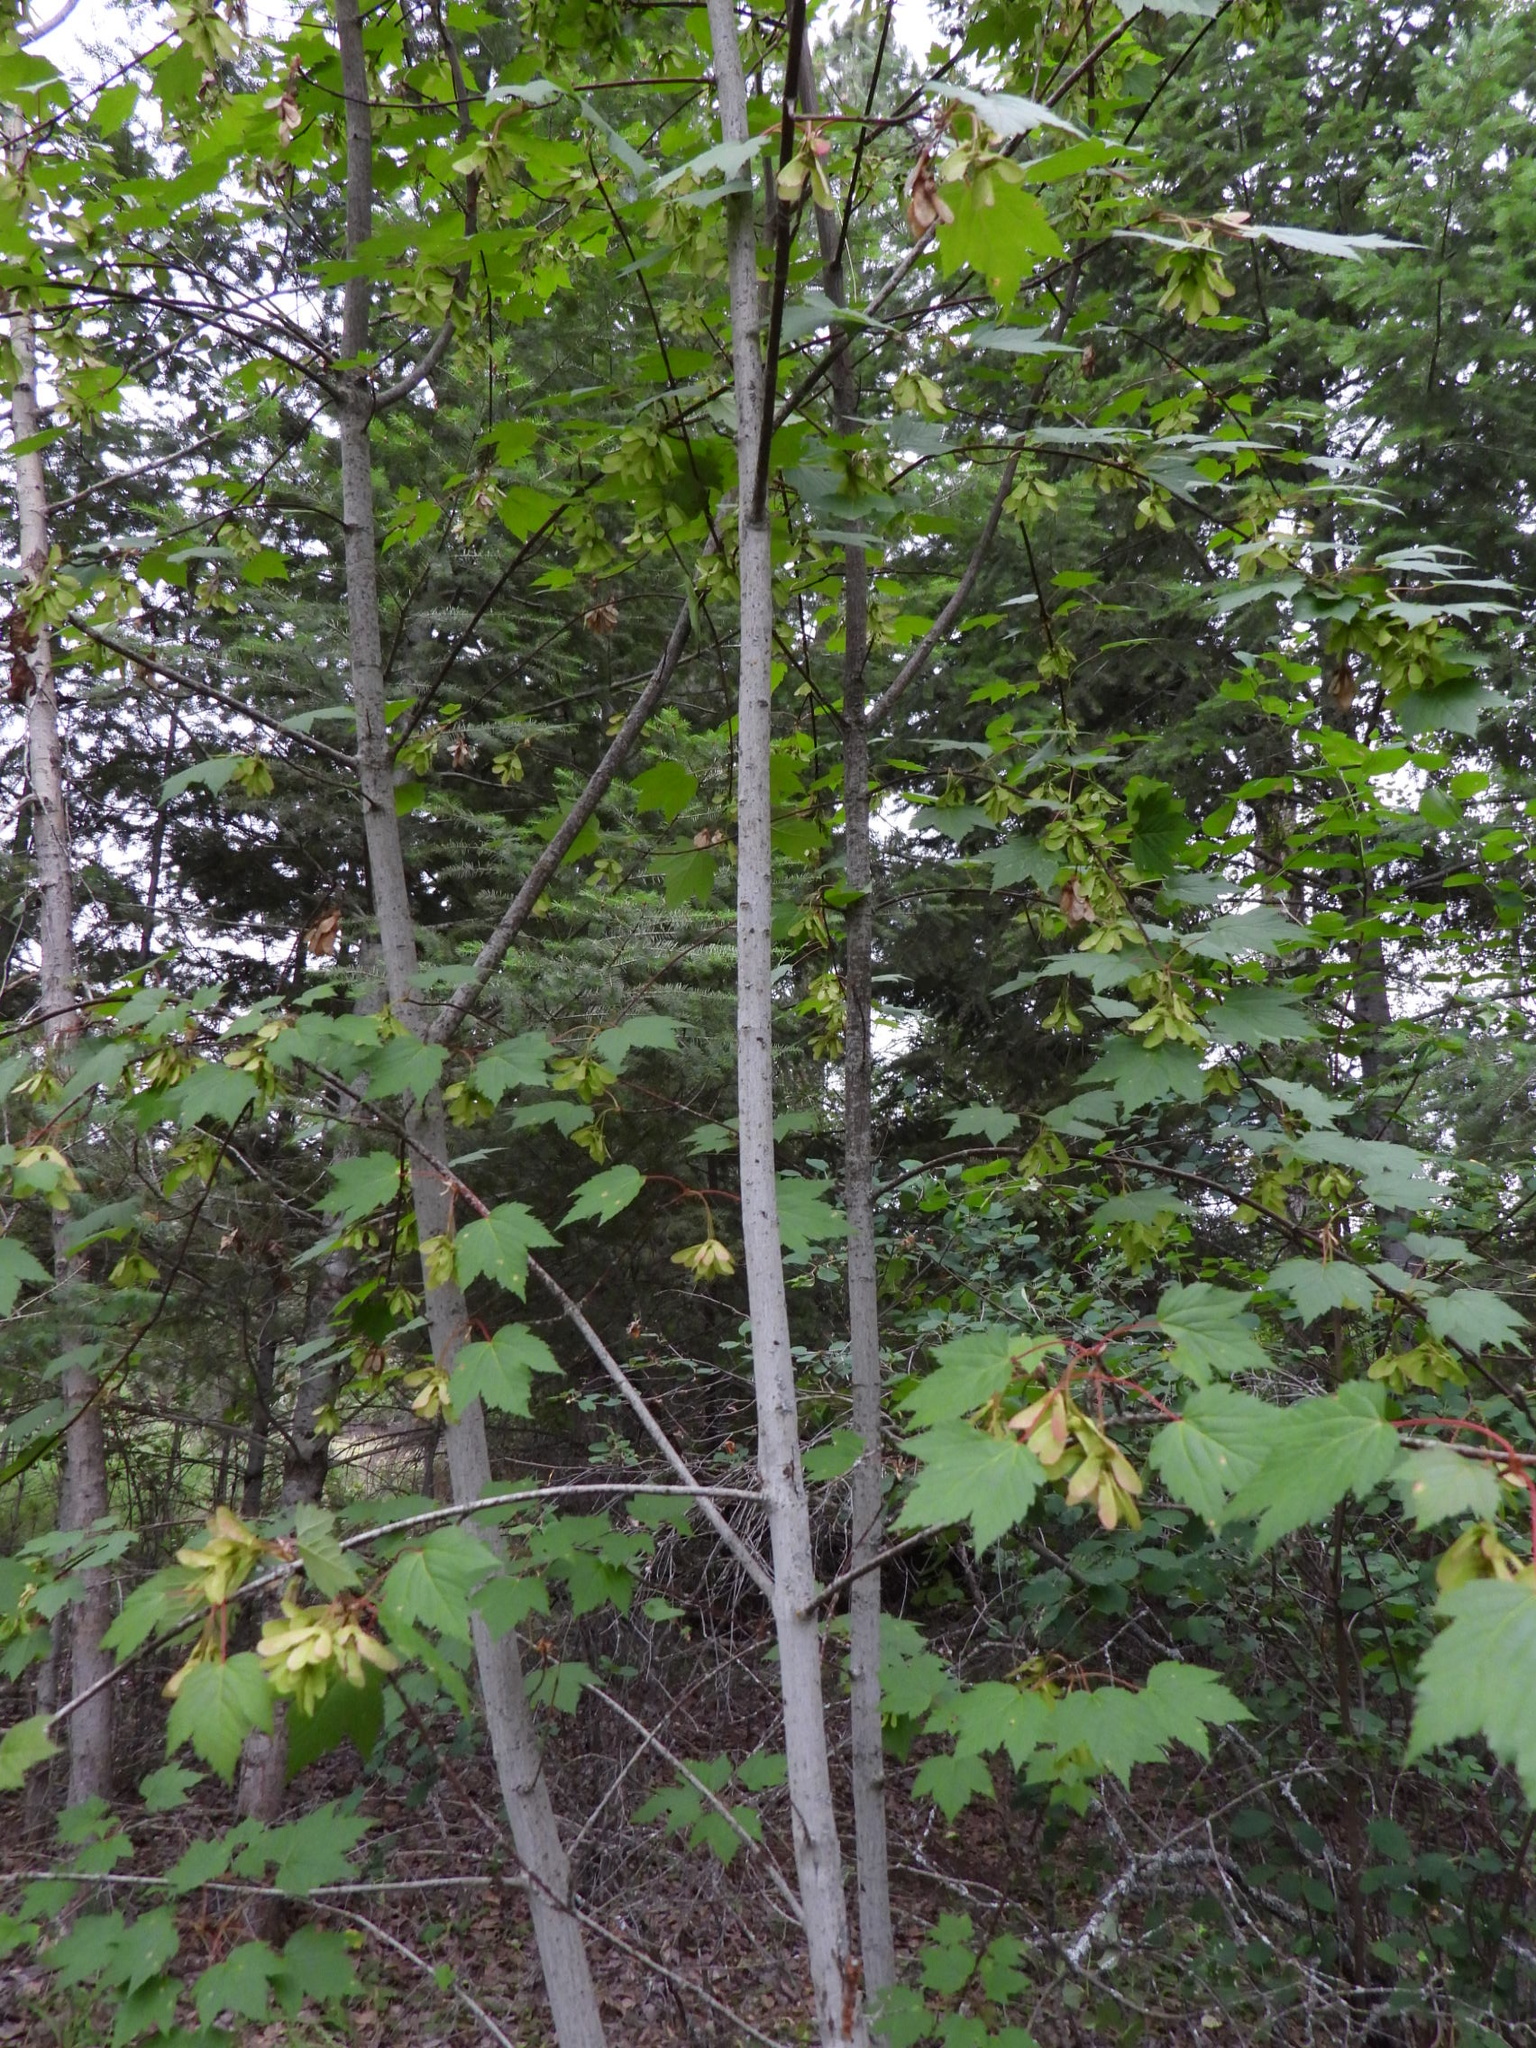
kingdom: Plantae
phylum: Tracheophyta
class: Magnoliopsida
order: Sapindales
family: Sapindaceae
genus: Acer
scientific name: Acer glabrum
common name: Rocky mountain maple
